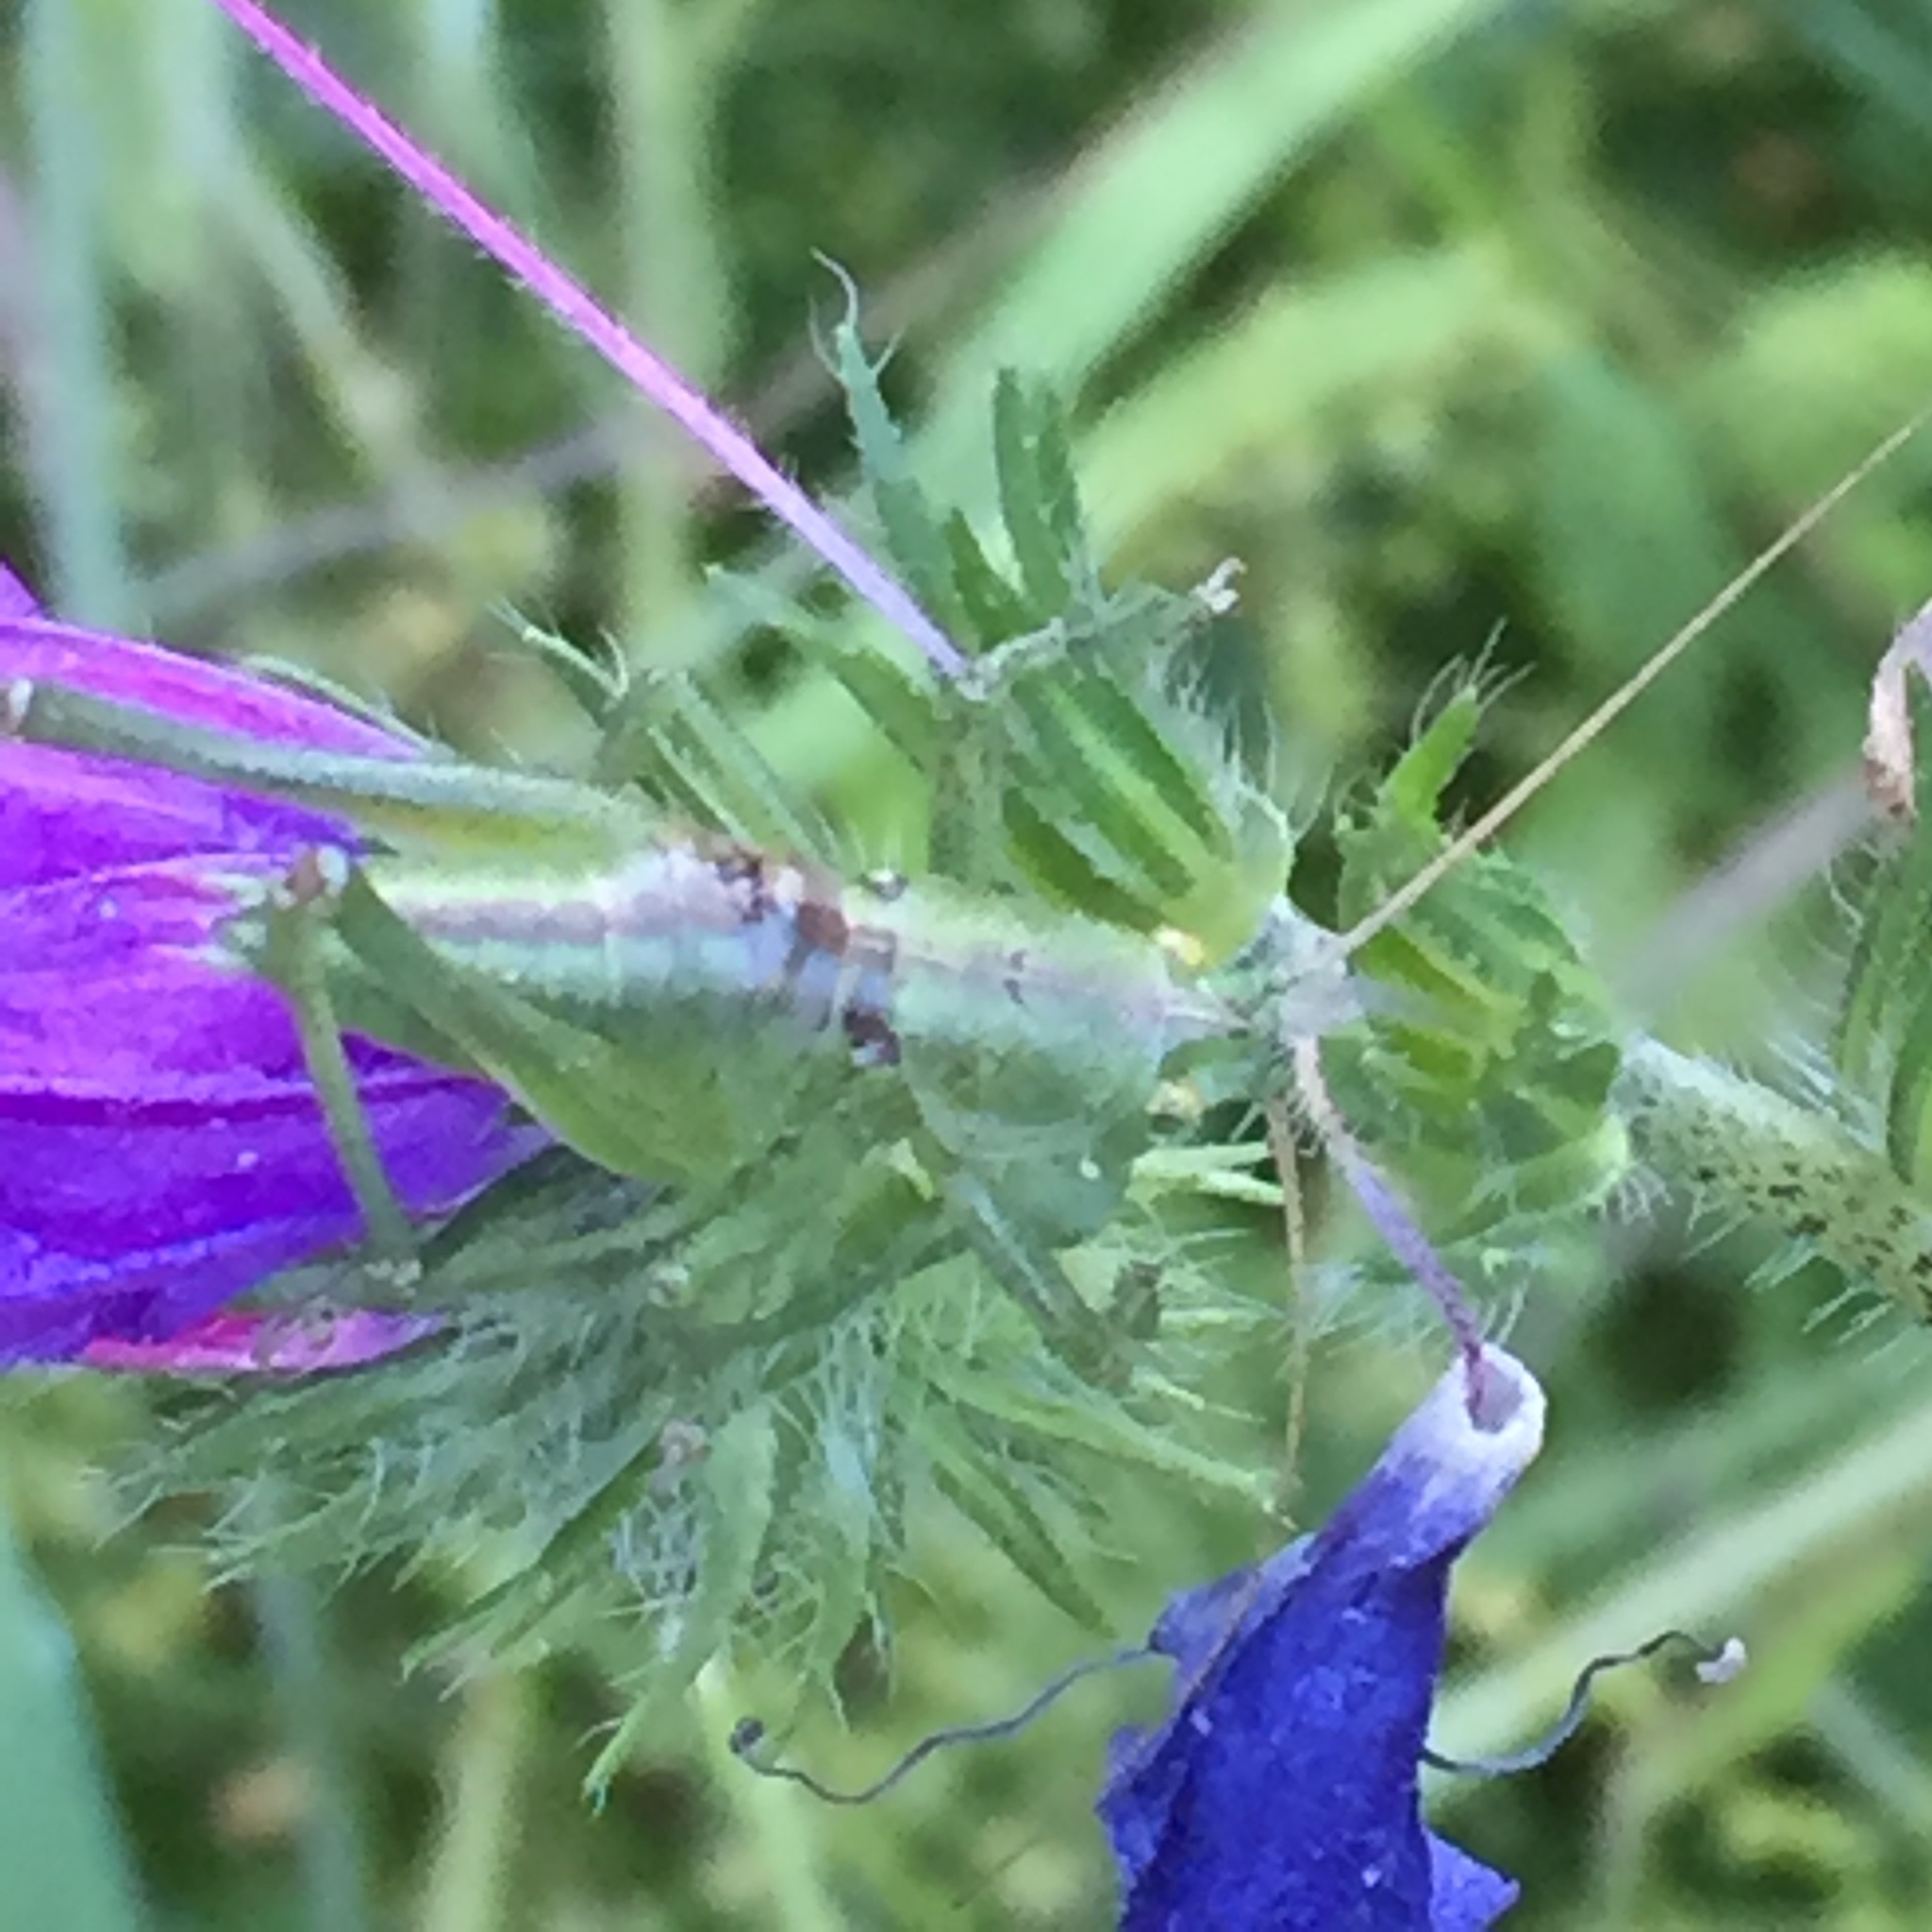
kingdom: Animalia
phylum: Arthropoda
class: Insecta
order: Orthoptera
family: Tettigoniidae
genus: Tettigonia
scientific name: Tettigonia viridissima
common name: Great green bush-cricket
